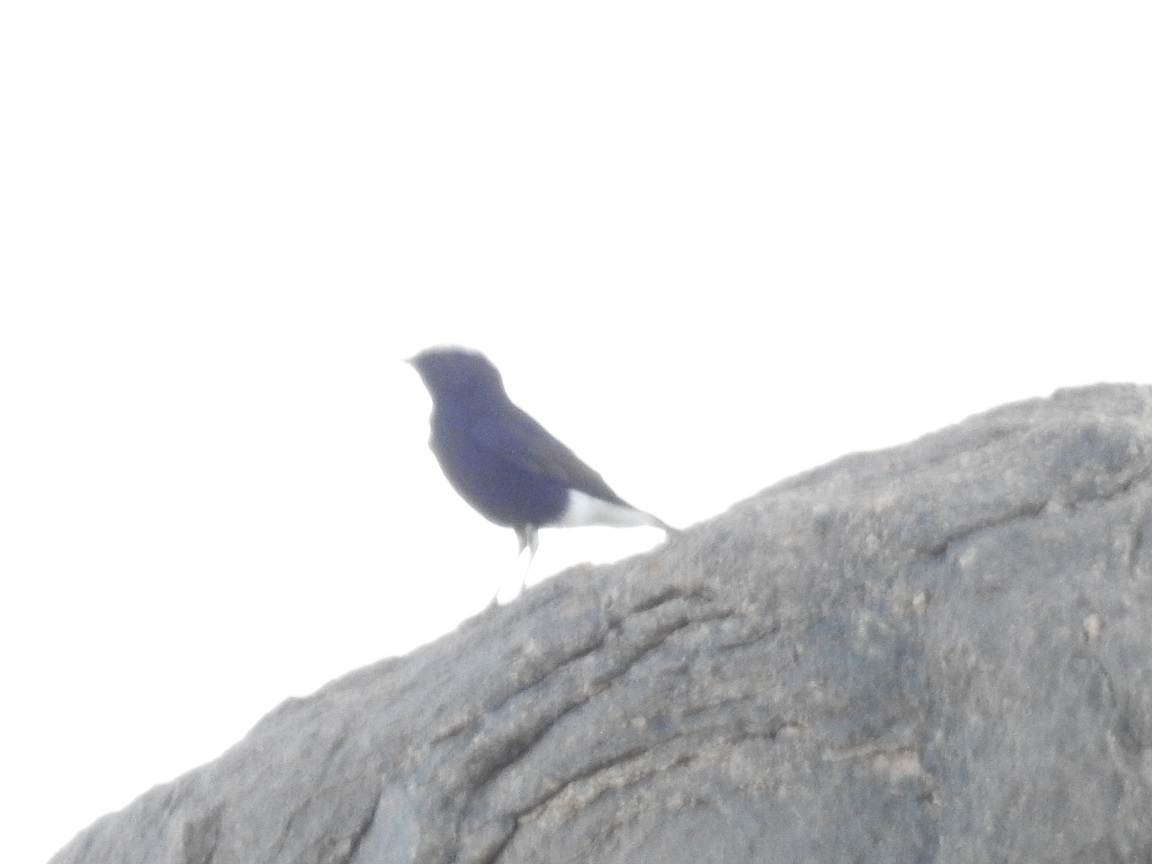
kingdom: Animalia
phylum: Chordata
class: Aves
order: Passeriformes
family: Muscicapidae
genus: Oenanthe
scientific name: Oenanthe leucopyga
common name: White-crowned wheatear
